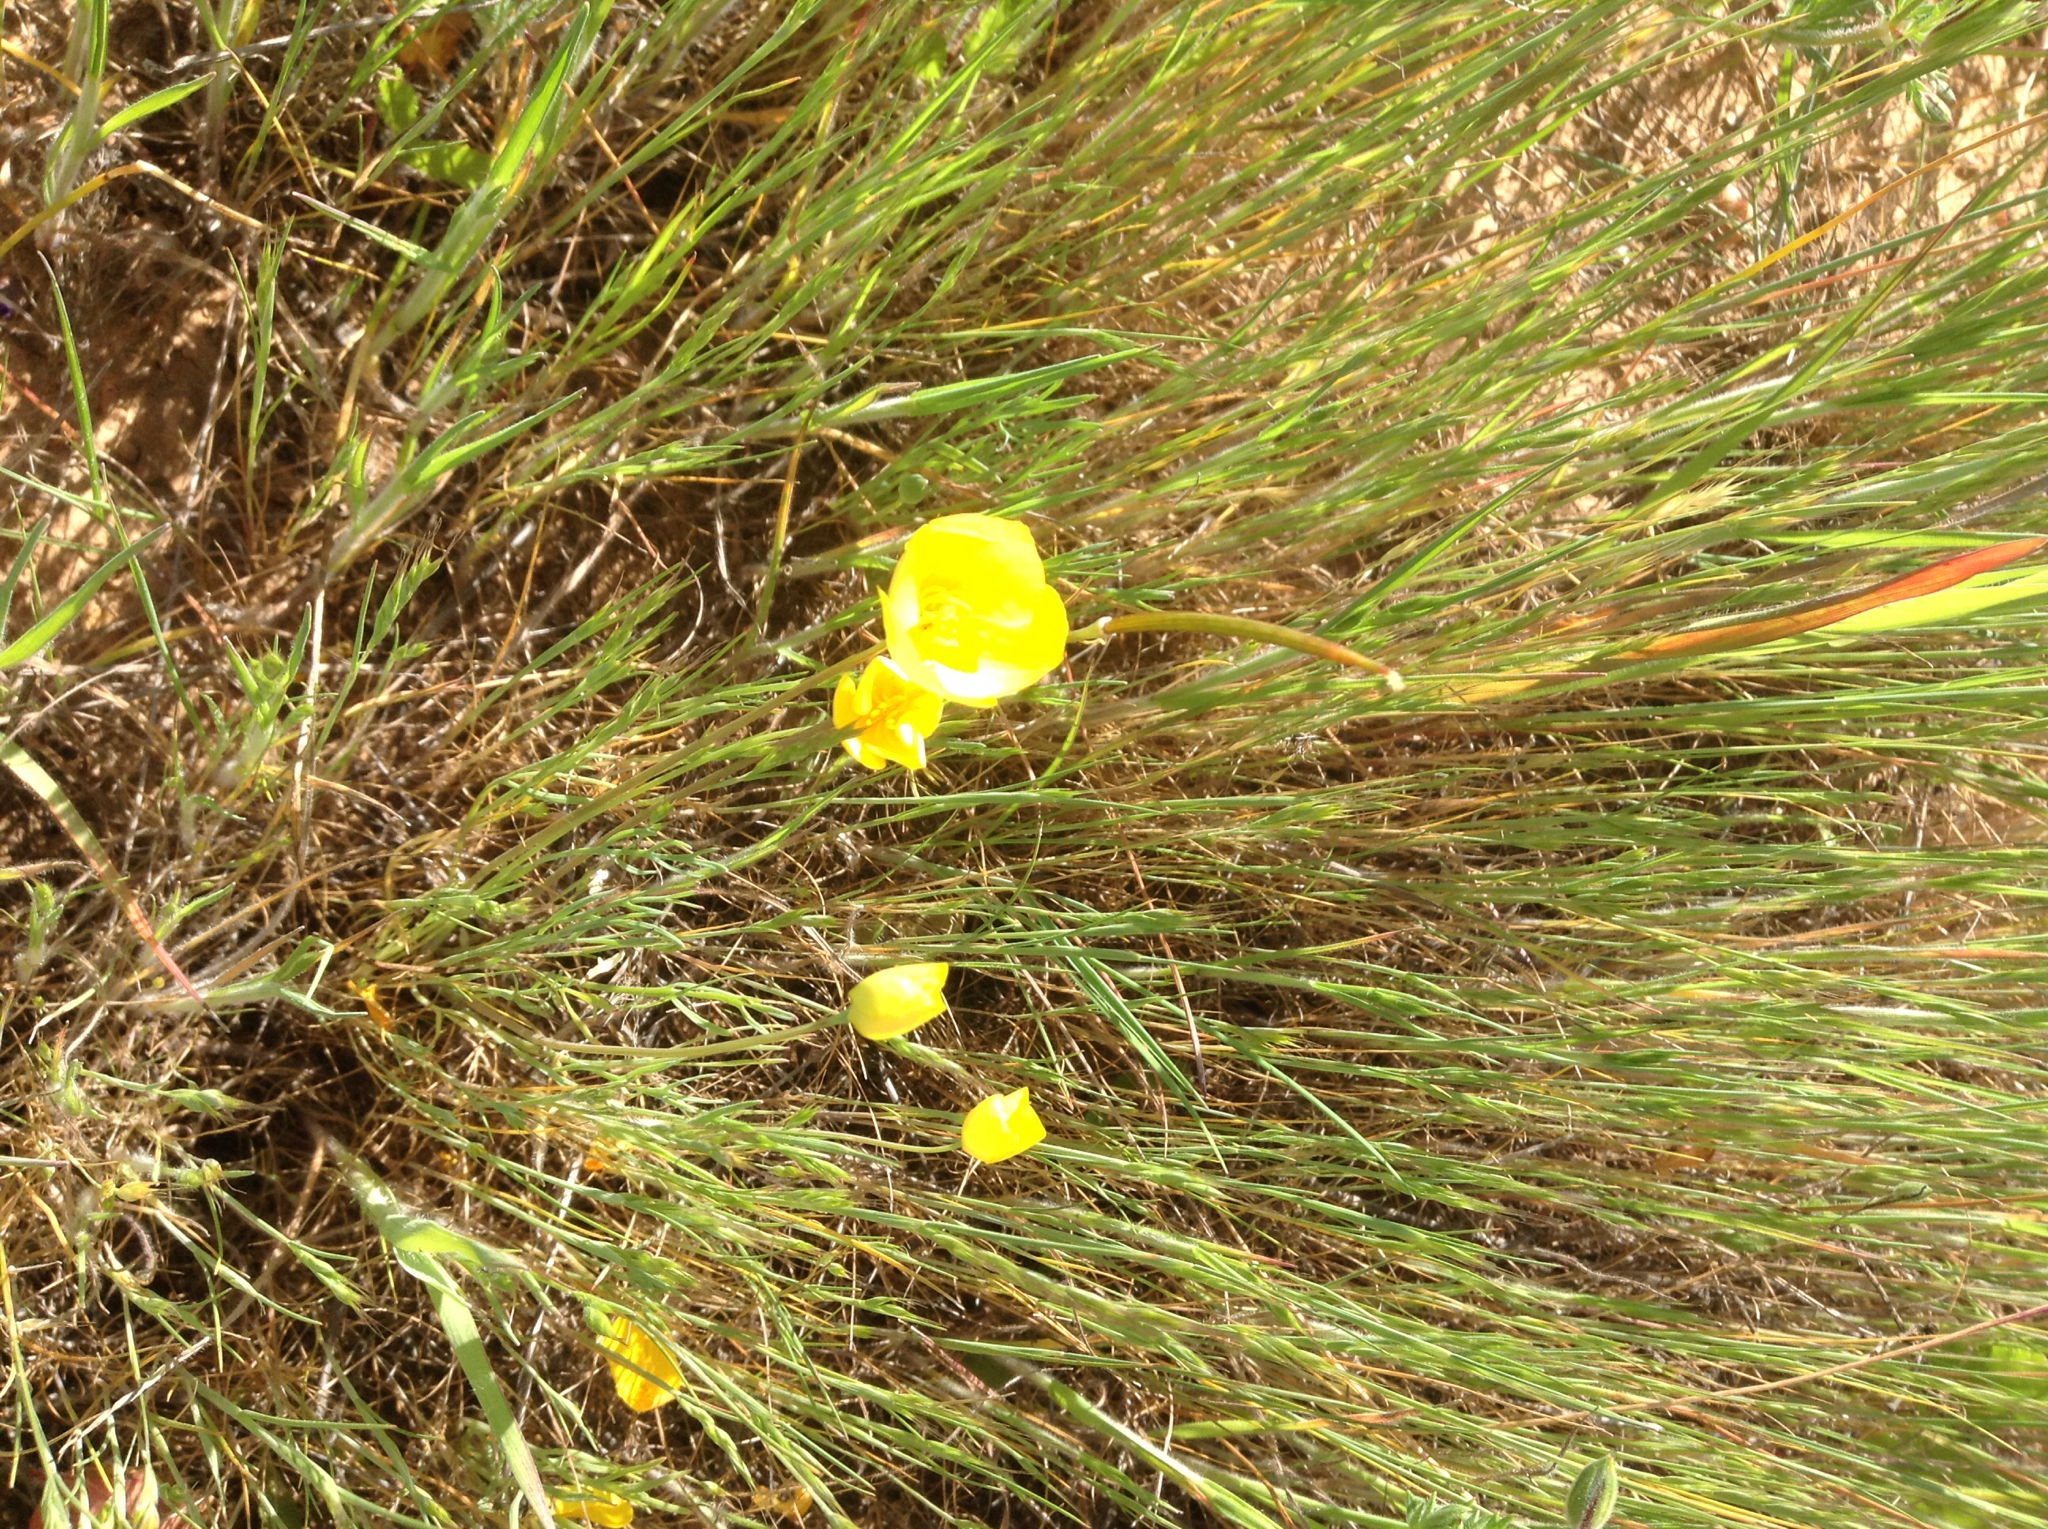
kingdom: Plantae
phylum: Tracheophyta
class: Magnoliopsida
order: Ranunculales
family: Papaveraceae
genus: Eschscholzia
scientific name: Eschscholzia lobbii
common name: Frying-pans
